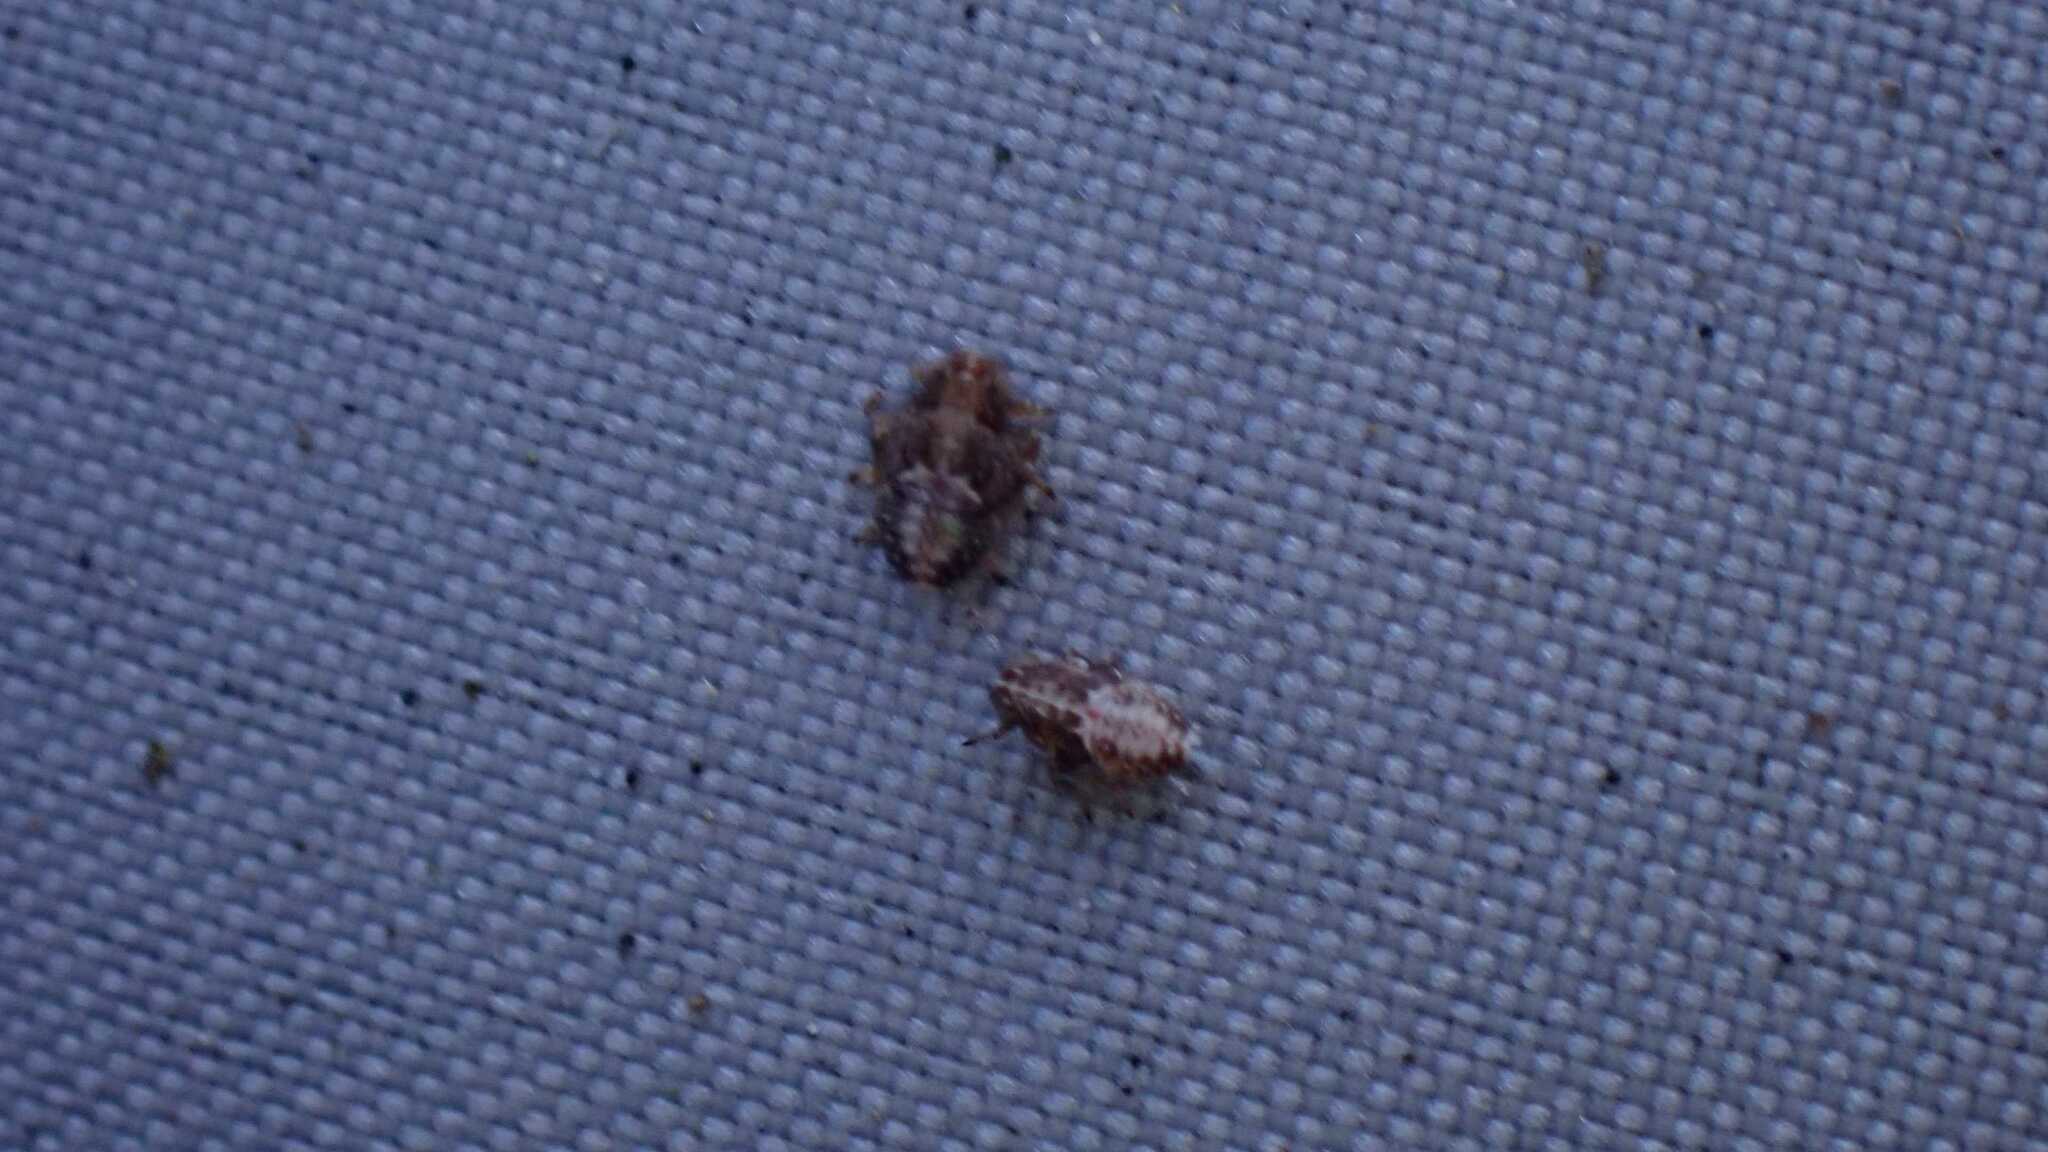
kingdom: Animalia
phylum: Arthropoda
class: Insecta
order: Hemiptera
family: Issidae
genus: Issus
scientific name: Issus coleoptratus
